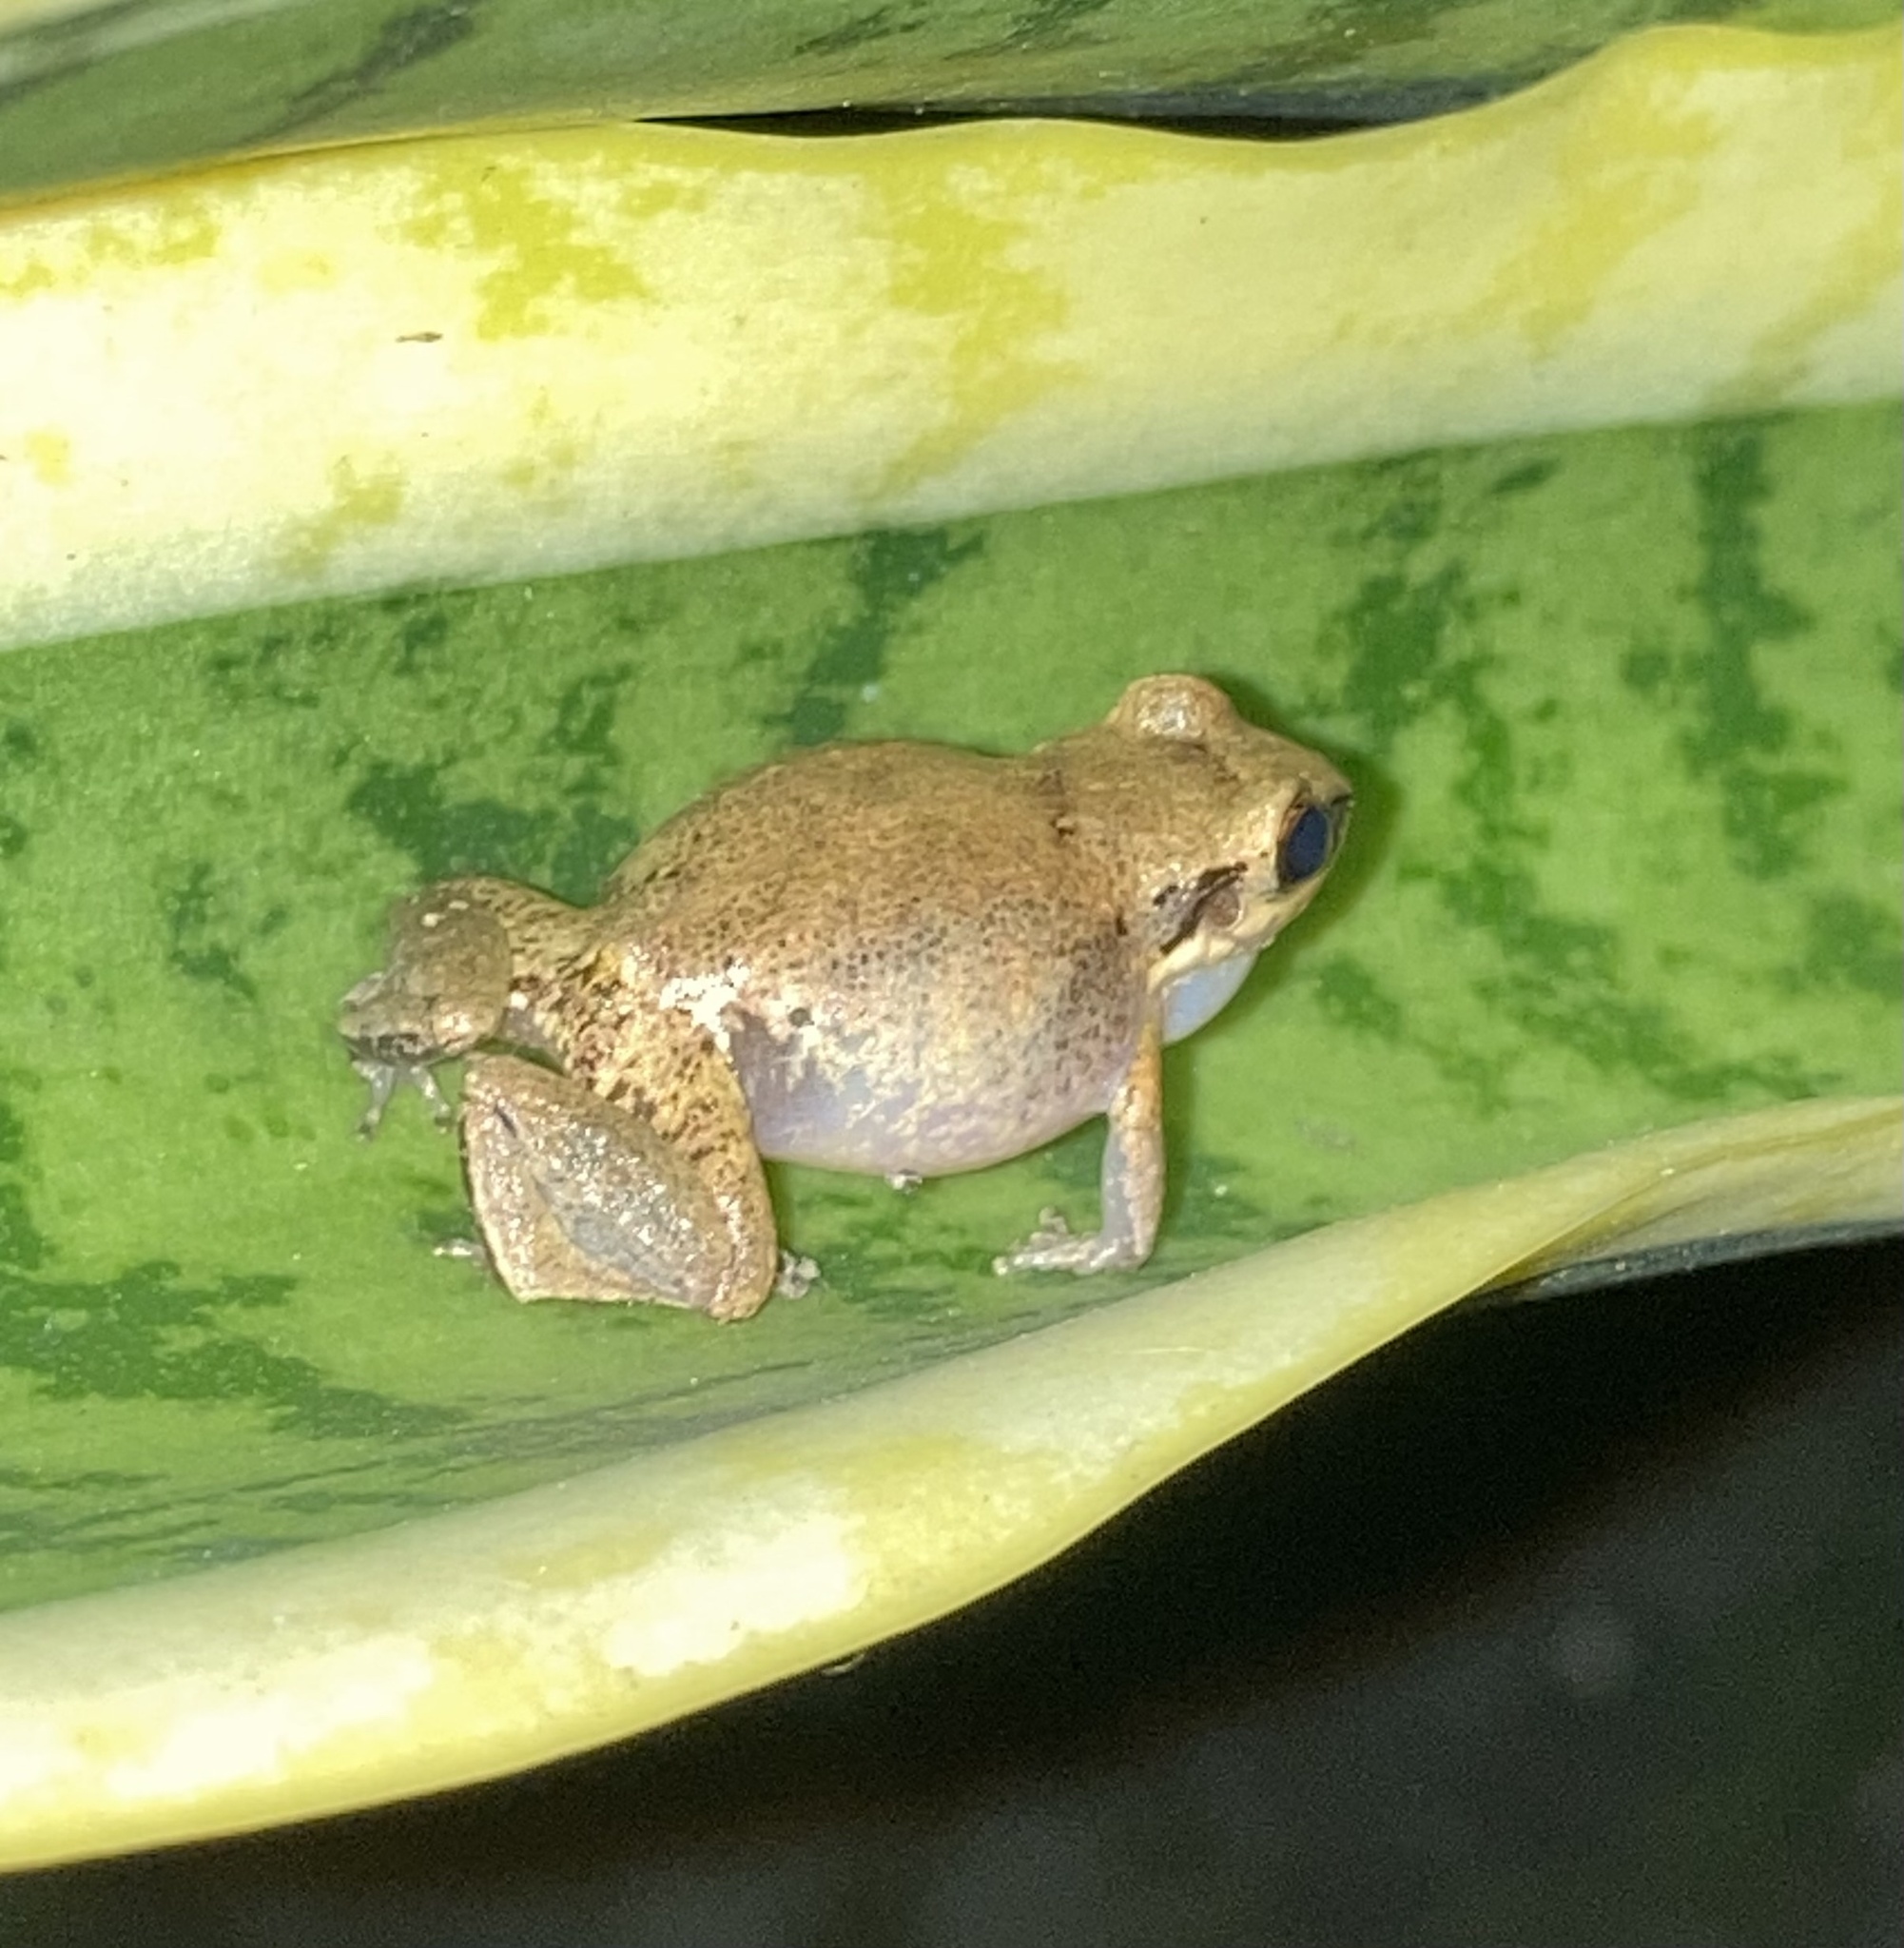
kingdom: Animalia
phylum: Chordata
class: Amphibia
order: Anura
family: Eleutherodactylidae
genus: Eleutherodactylus
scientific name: Eleutherodactylus johnstonei
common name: Johnstone's robber frog
